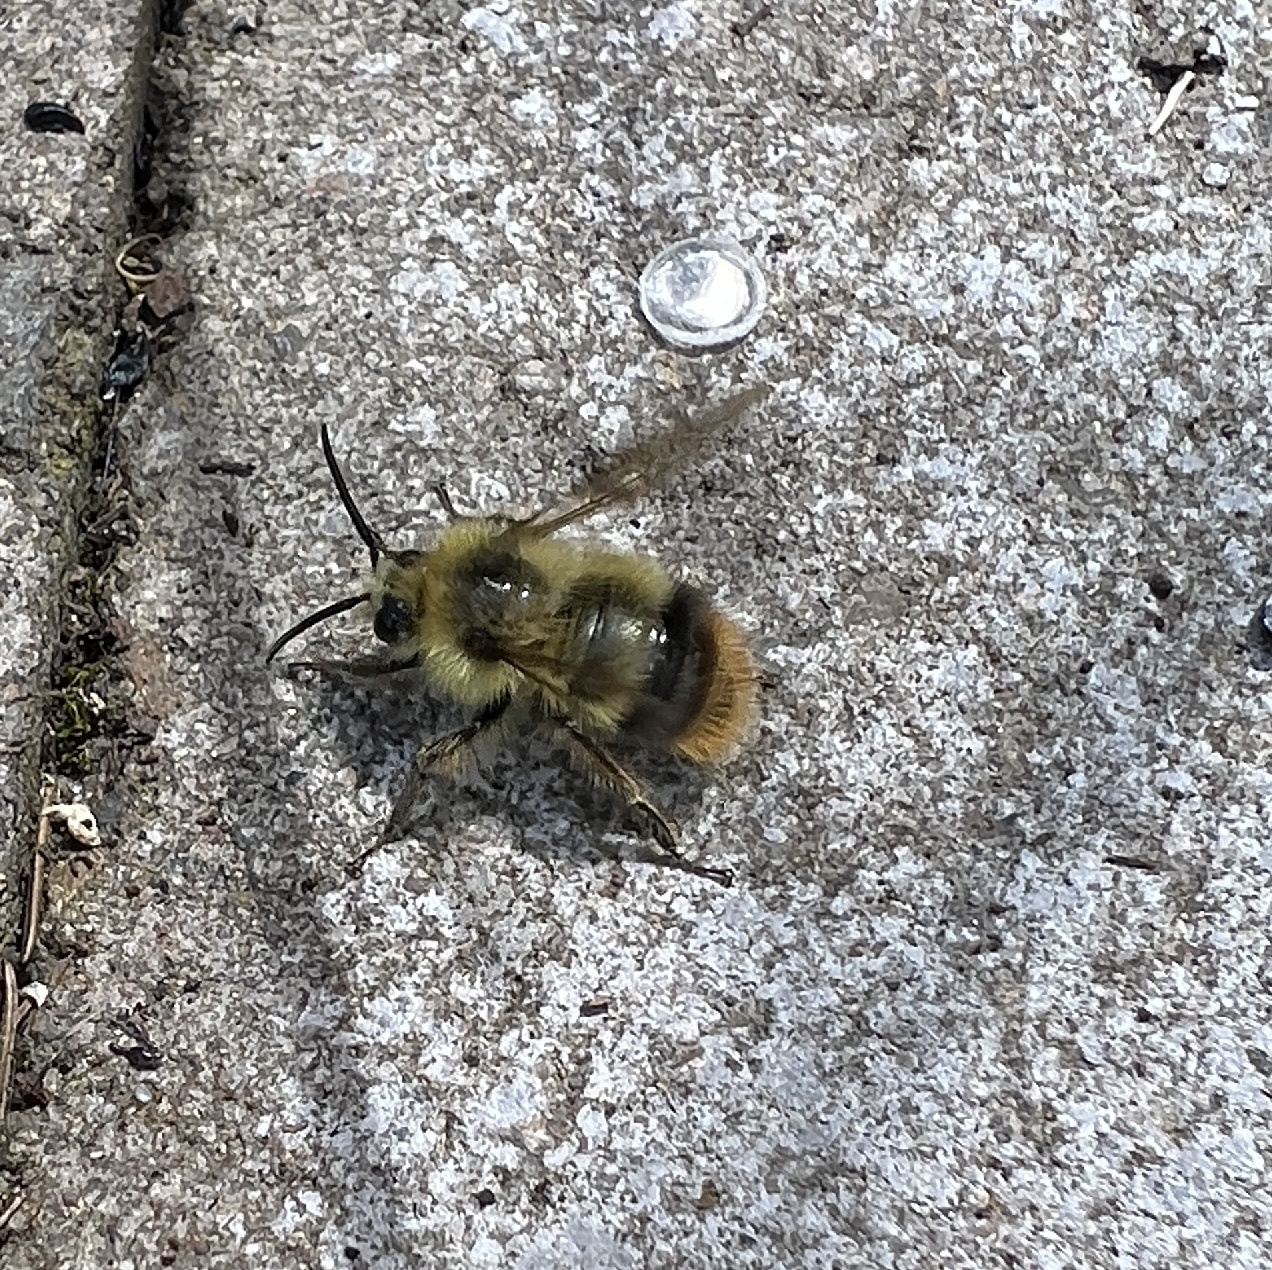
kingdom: Animalia
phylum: Arthropoda
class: Insecta
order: Hymenoptera
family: Apidae
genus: Bombus
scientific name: Bombus mixtus
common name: Fuzzy-horned bumble bee
